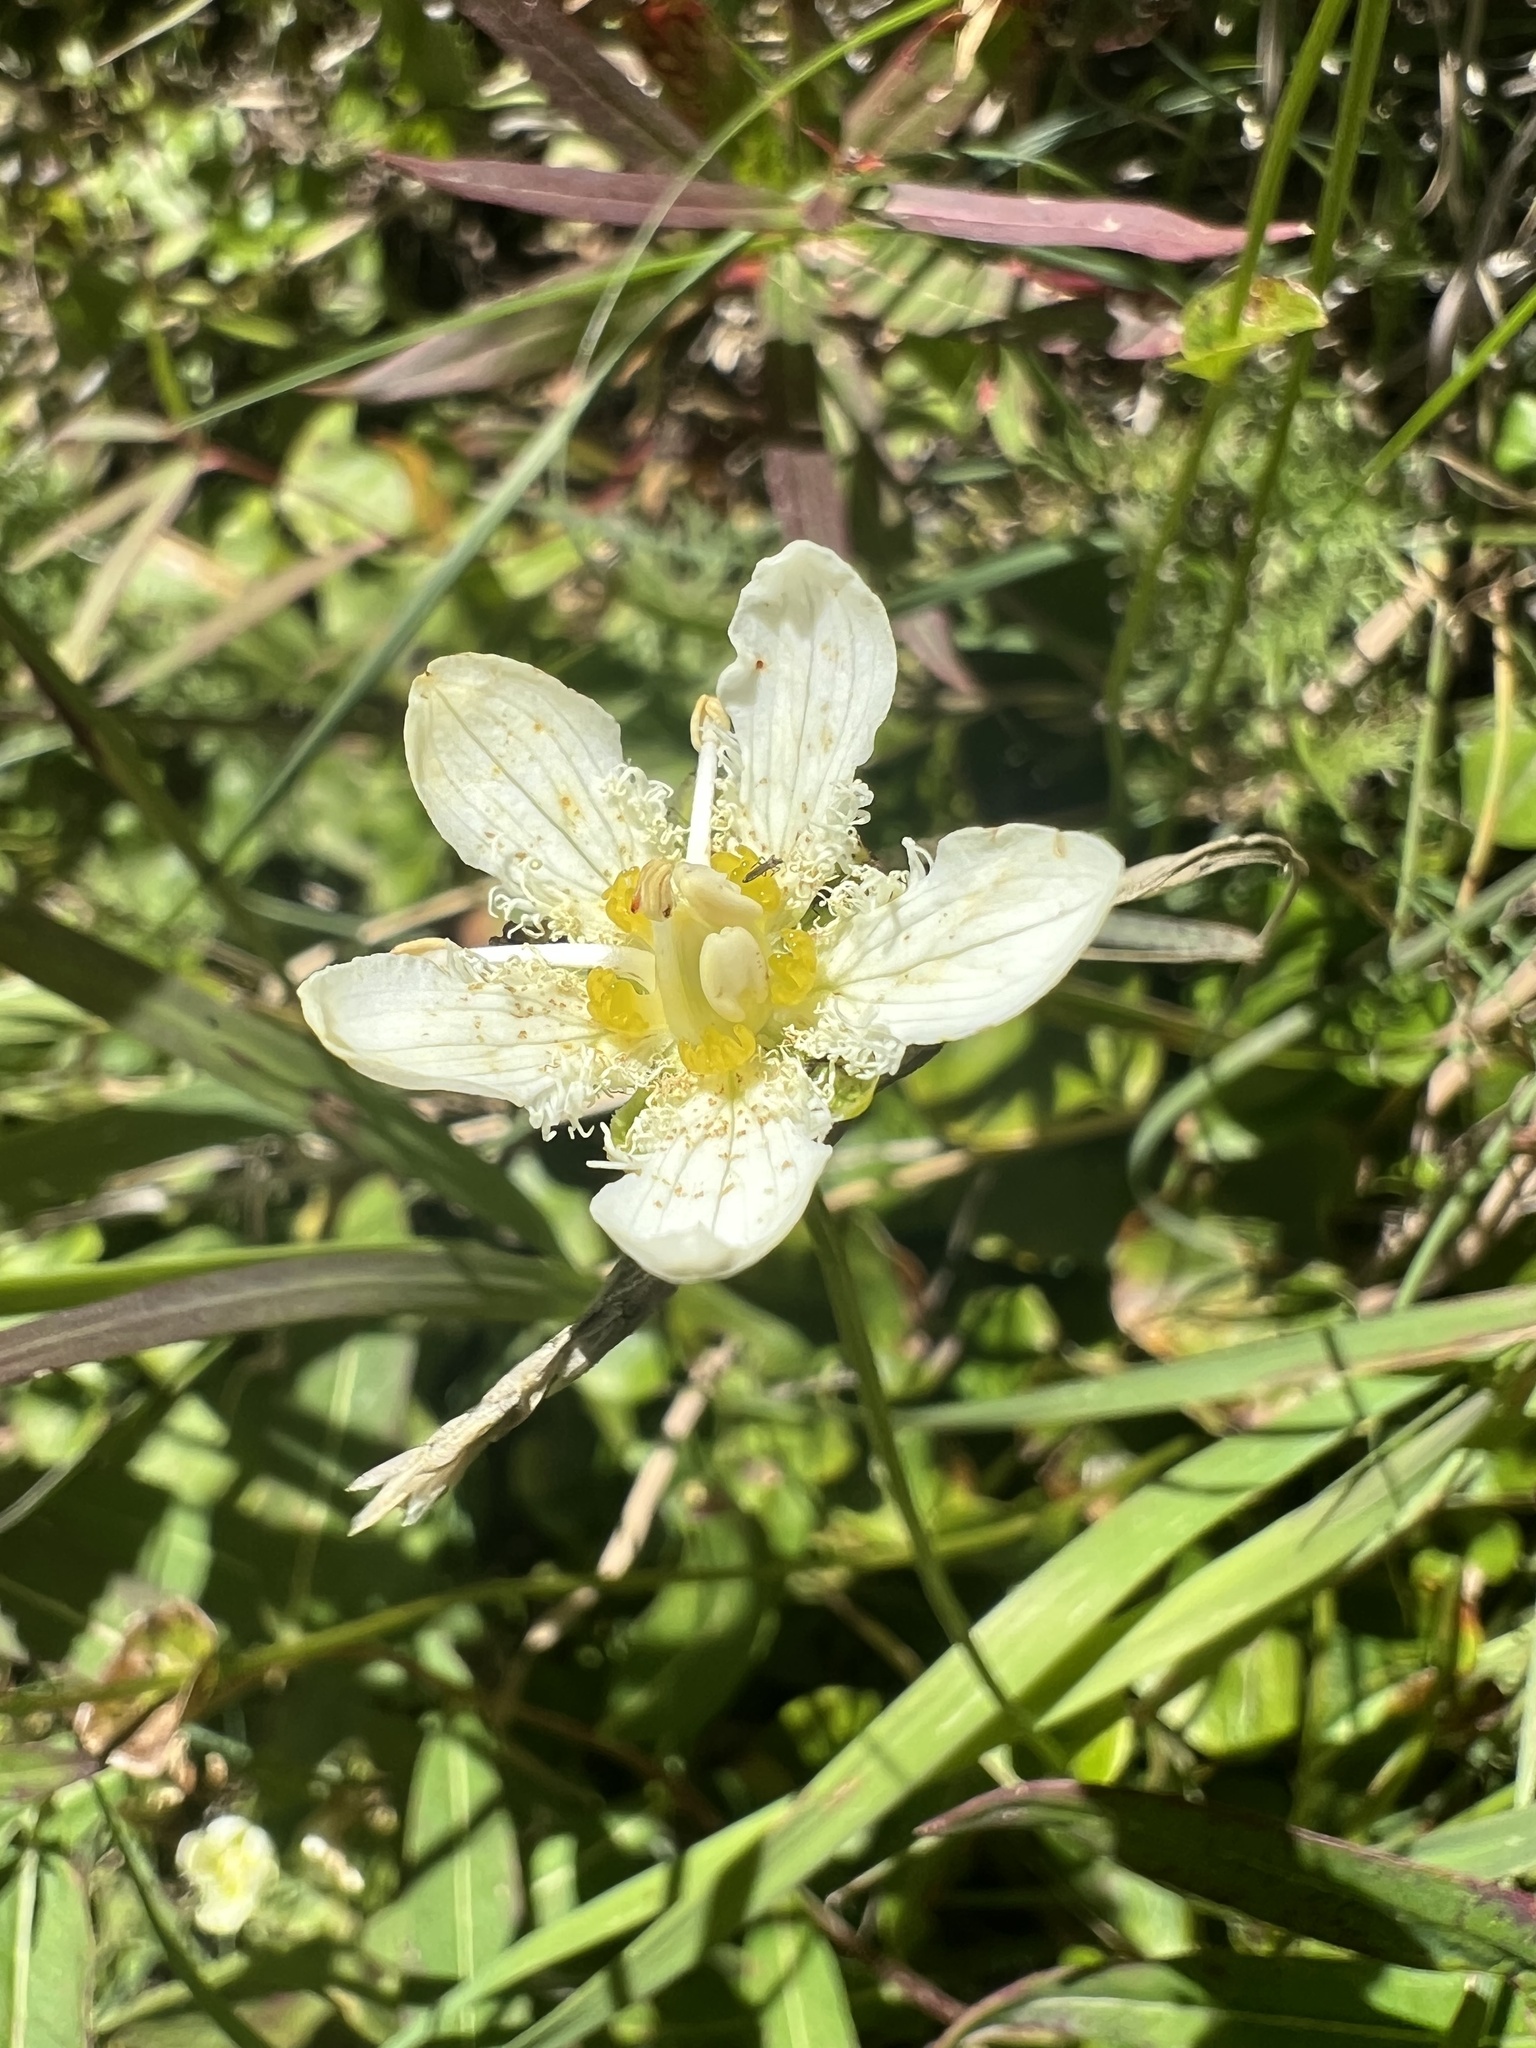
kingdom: Plantae
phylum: Tracheophyta
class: Magnoliopsida
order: Celastrales
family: Parnassiaceae
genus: Parnassia
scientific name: Parnassia fimbriata
